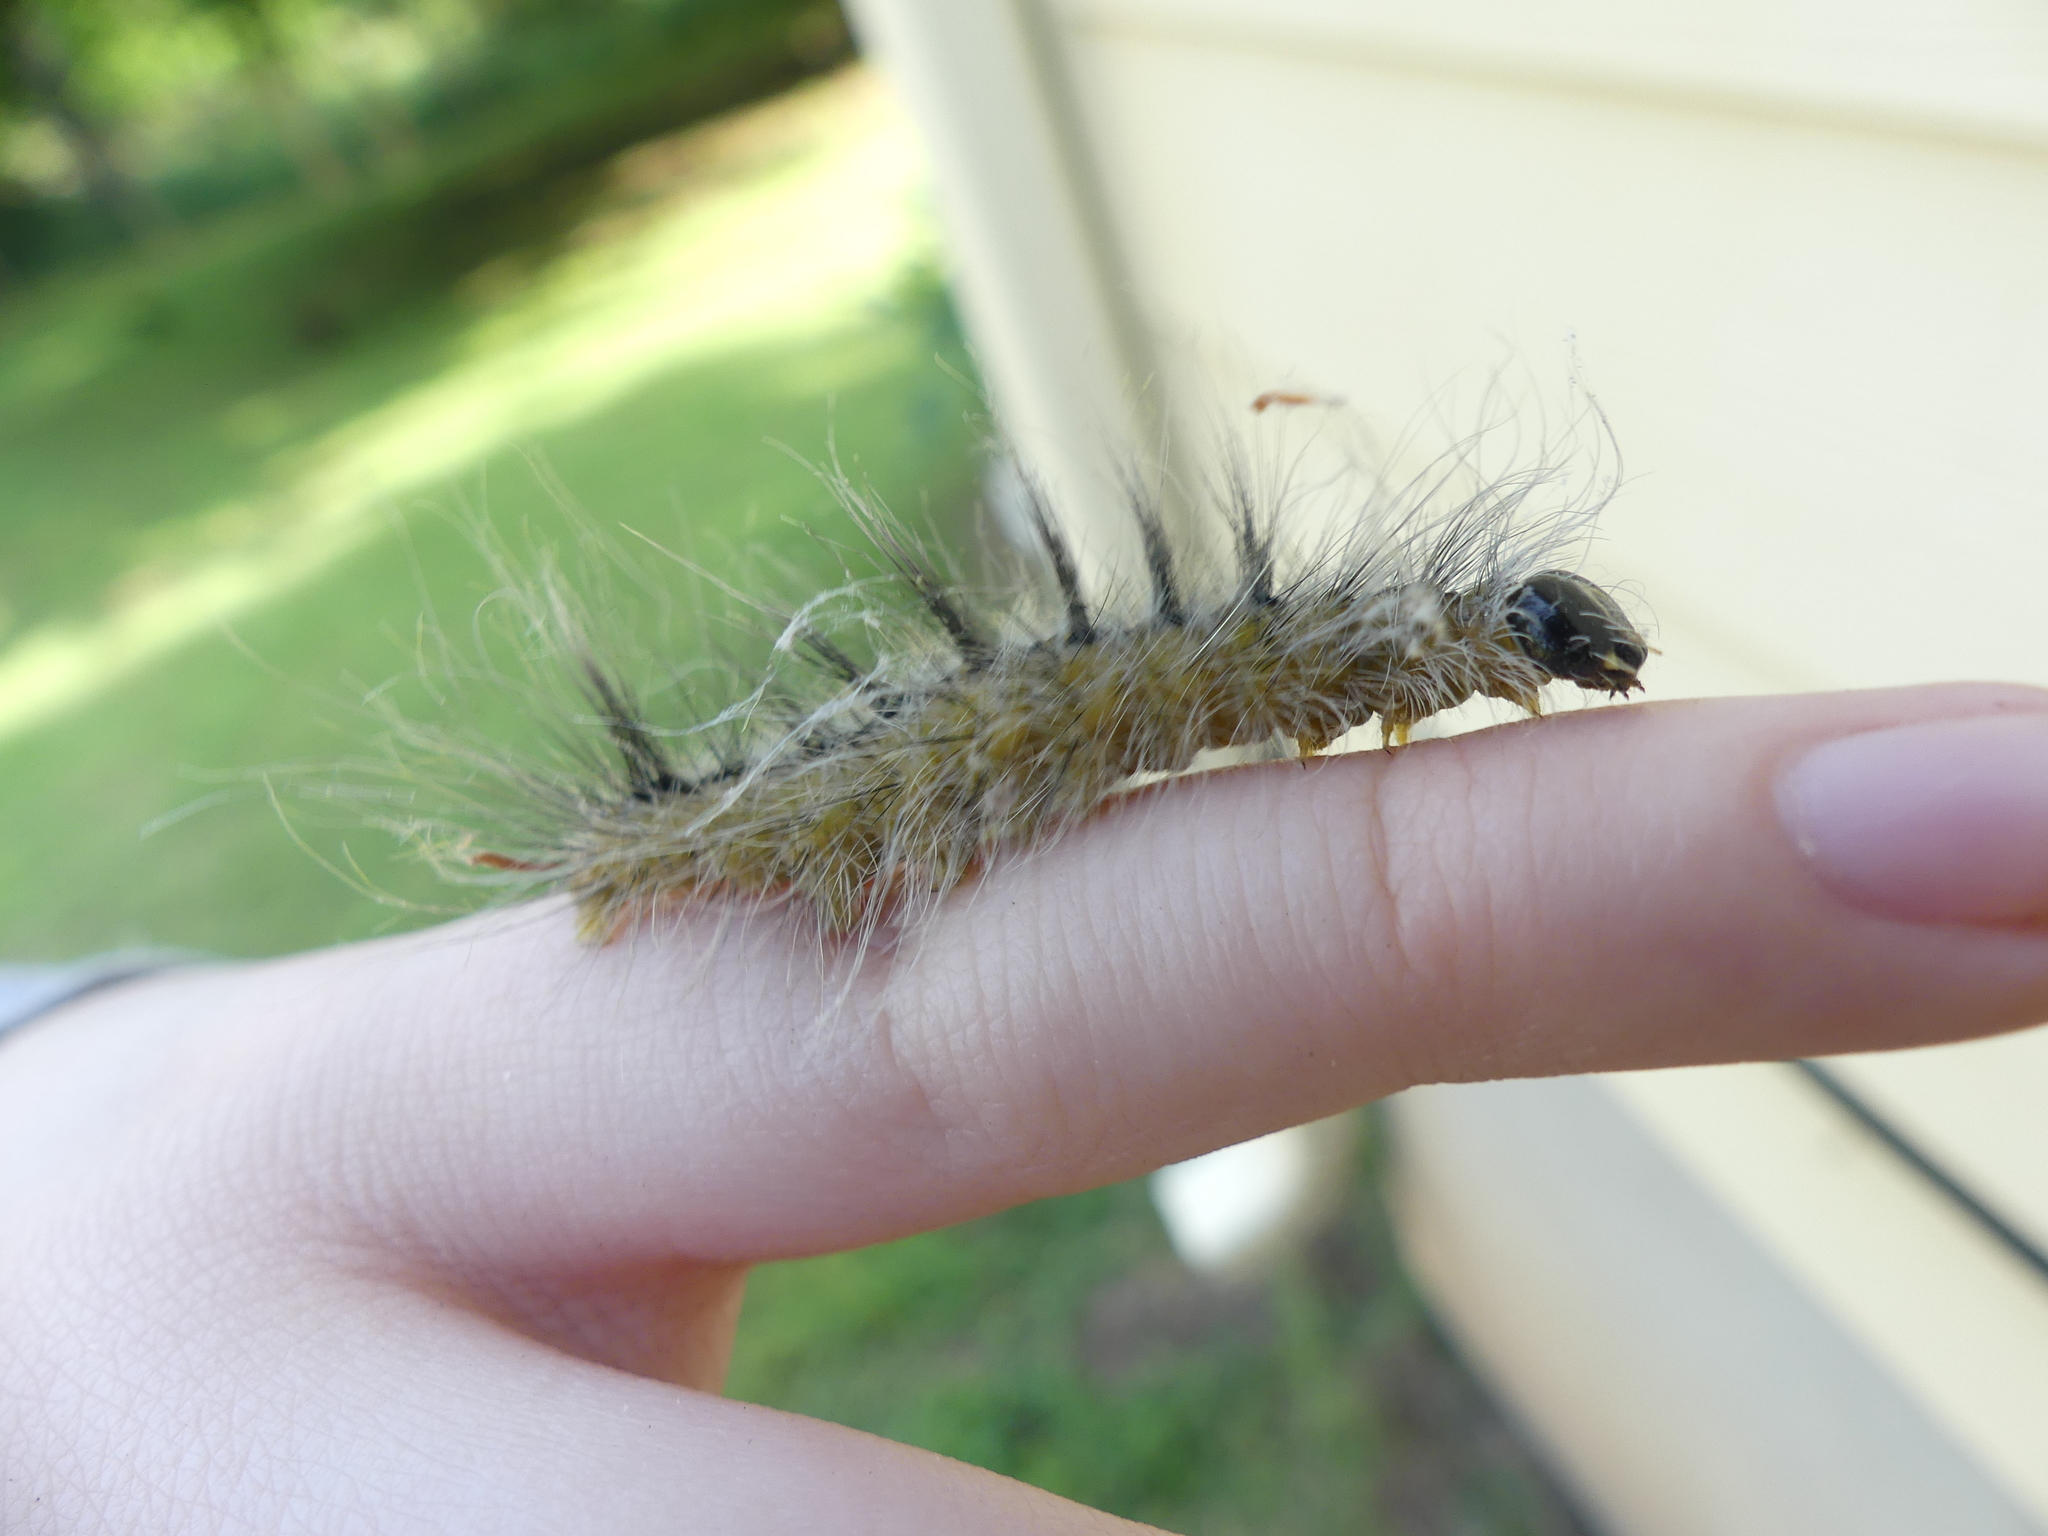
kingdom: Animalia
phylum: Arthropoda
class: Insecta
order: Lepidoptera
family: Noctuidae
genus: Acronicta
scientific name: Acronicta rubricoma
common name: Hackberry dagger
